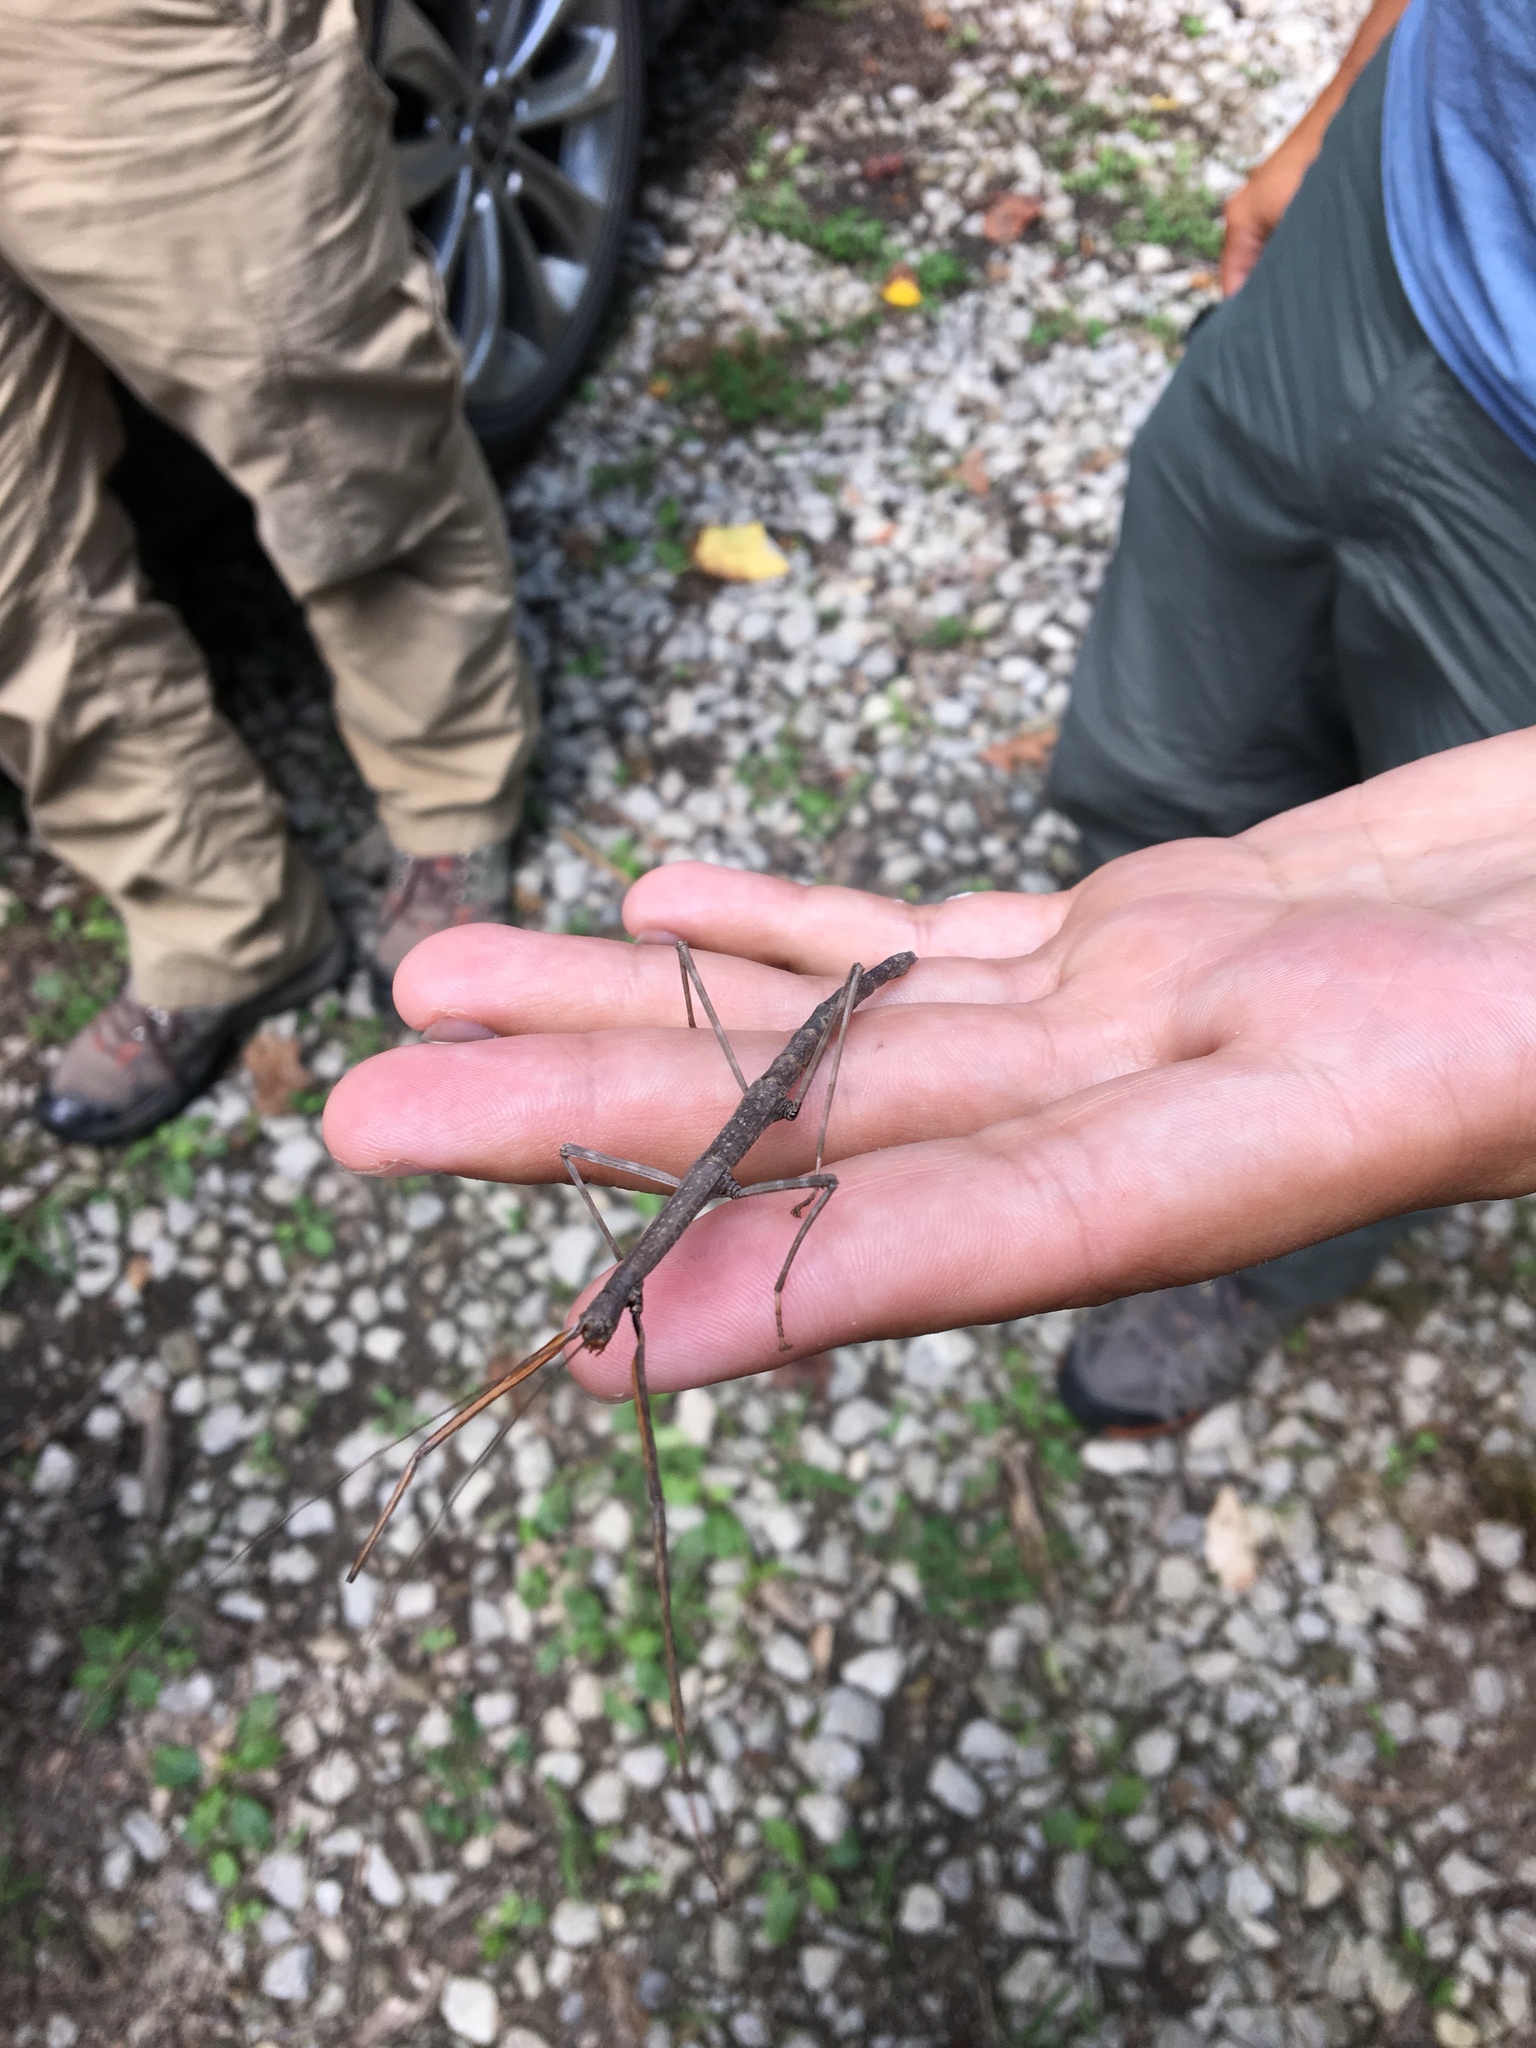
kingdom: Animalia
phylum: Arthropoda
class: Insecta
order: Phasmida
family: Diapheromeridae
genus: Diapheromera
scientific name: Diapheromera femorata
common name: Common american walkingstick
